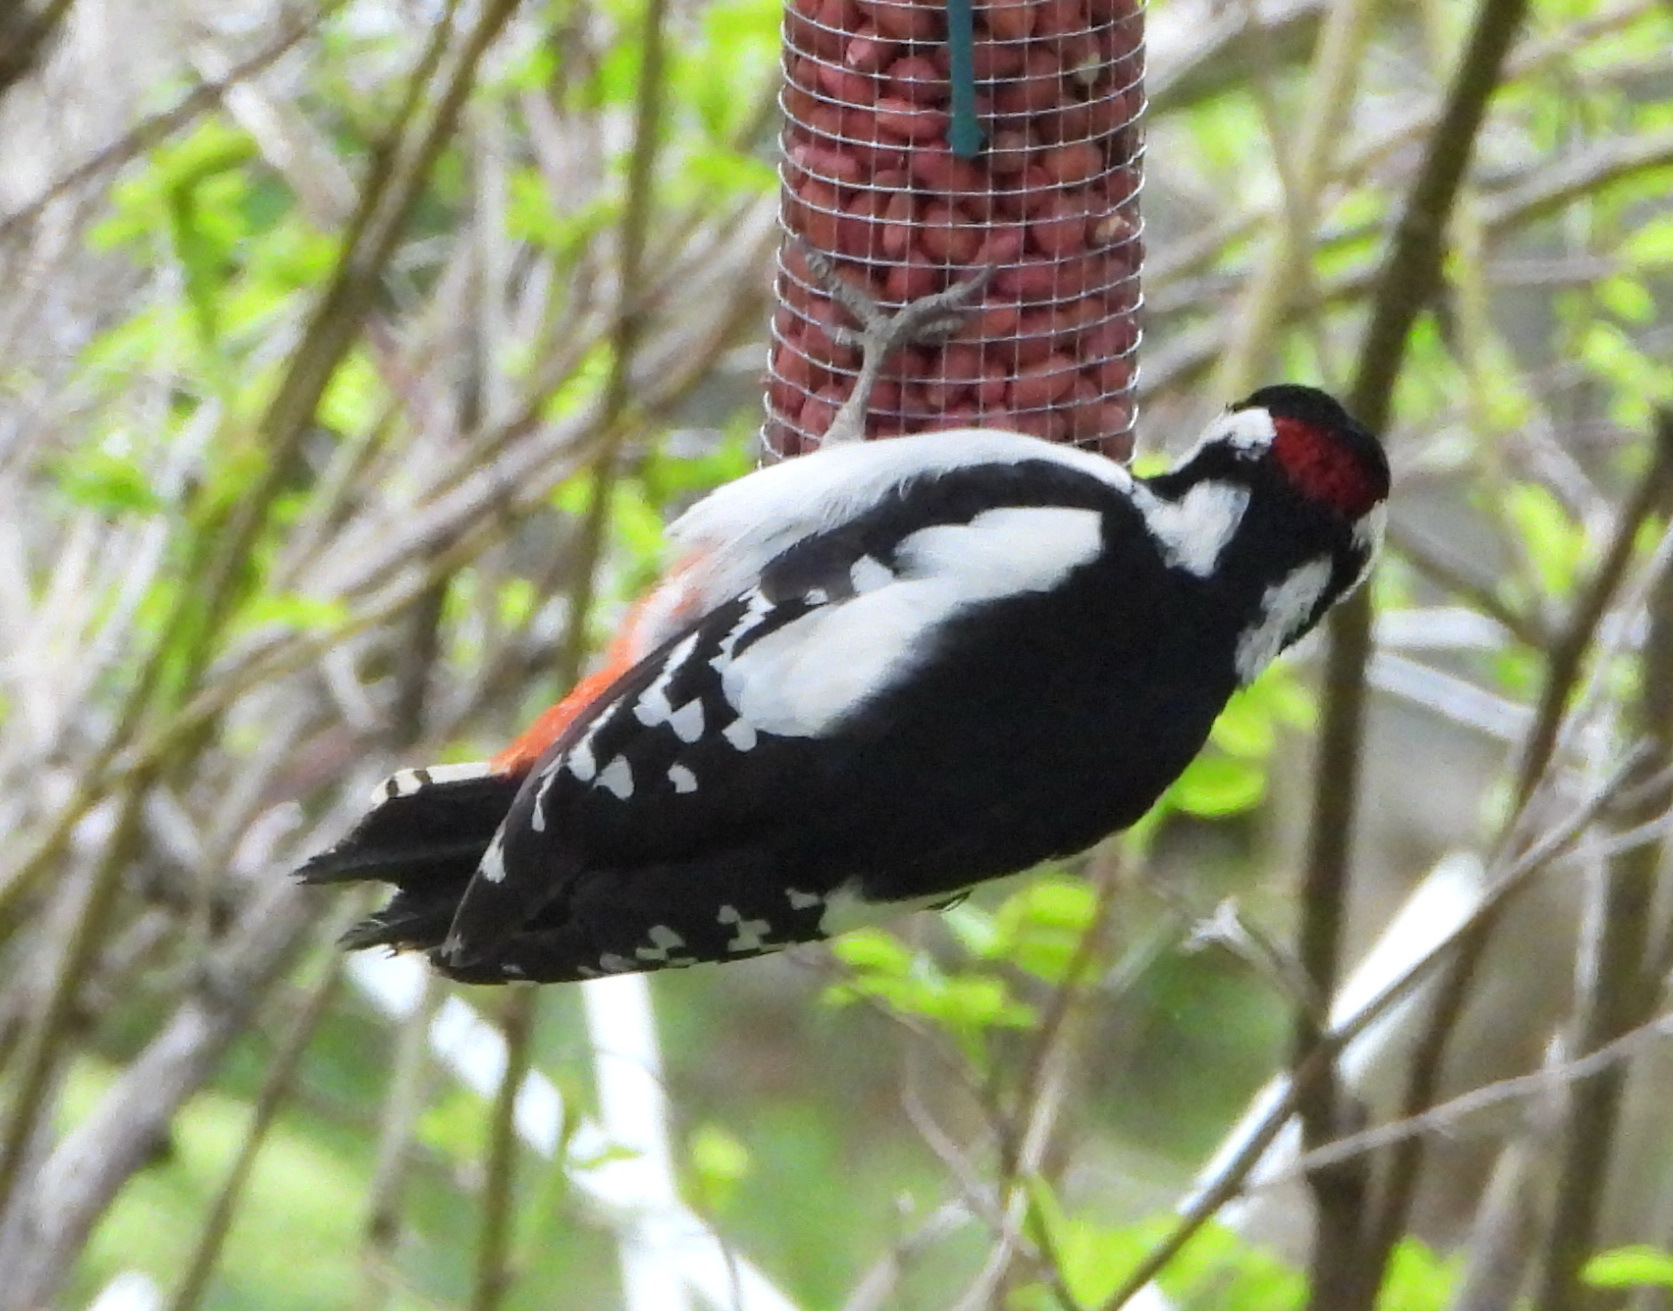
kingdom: Animalia
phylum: Chordata
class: Aves
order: Piciformes
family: Picidae
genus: Dendrocopos
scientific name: Dendrocopos major
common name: Great spotted woodpecker
